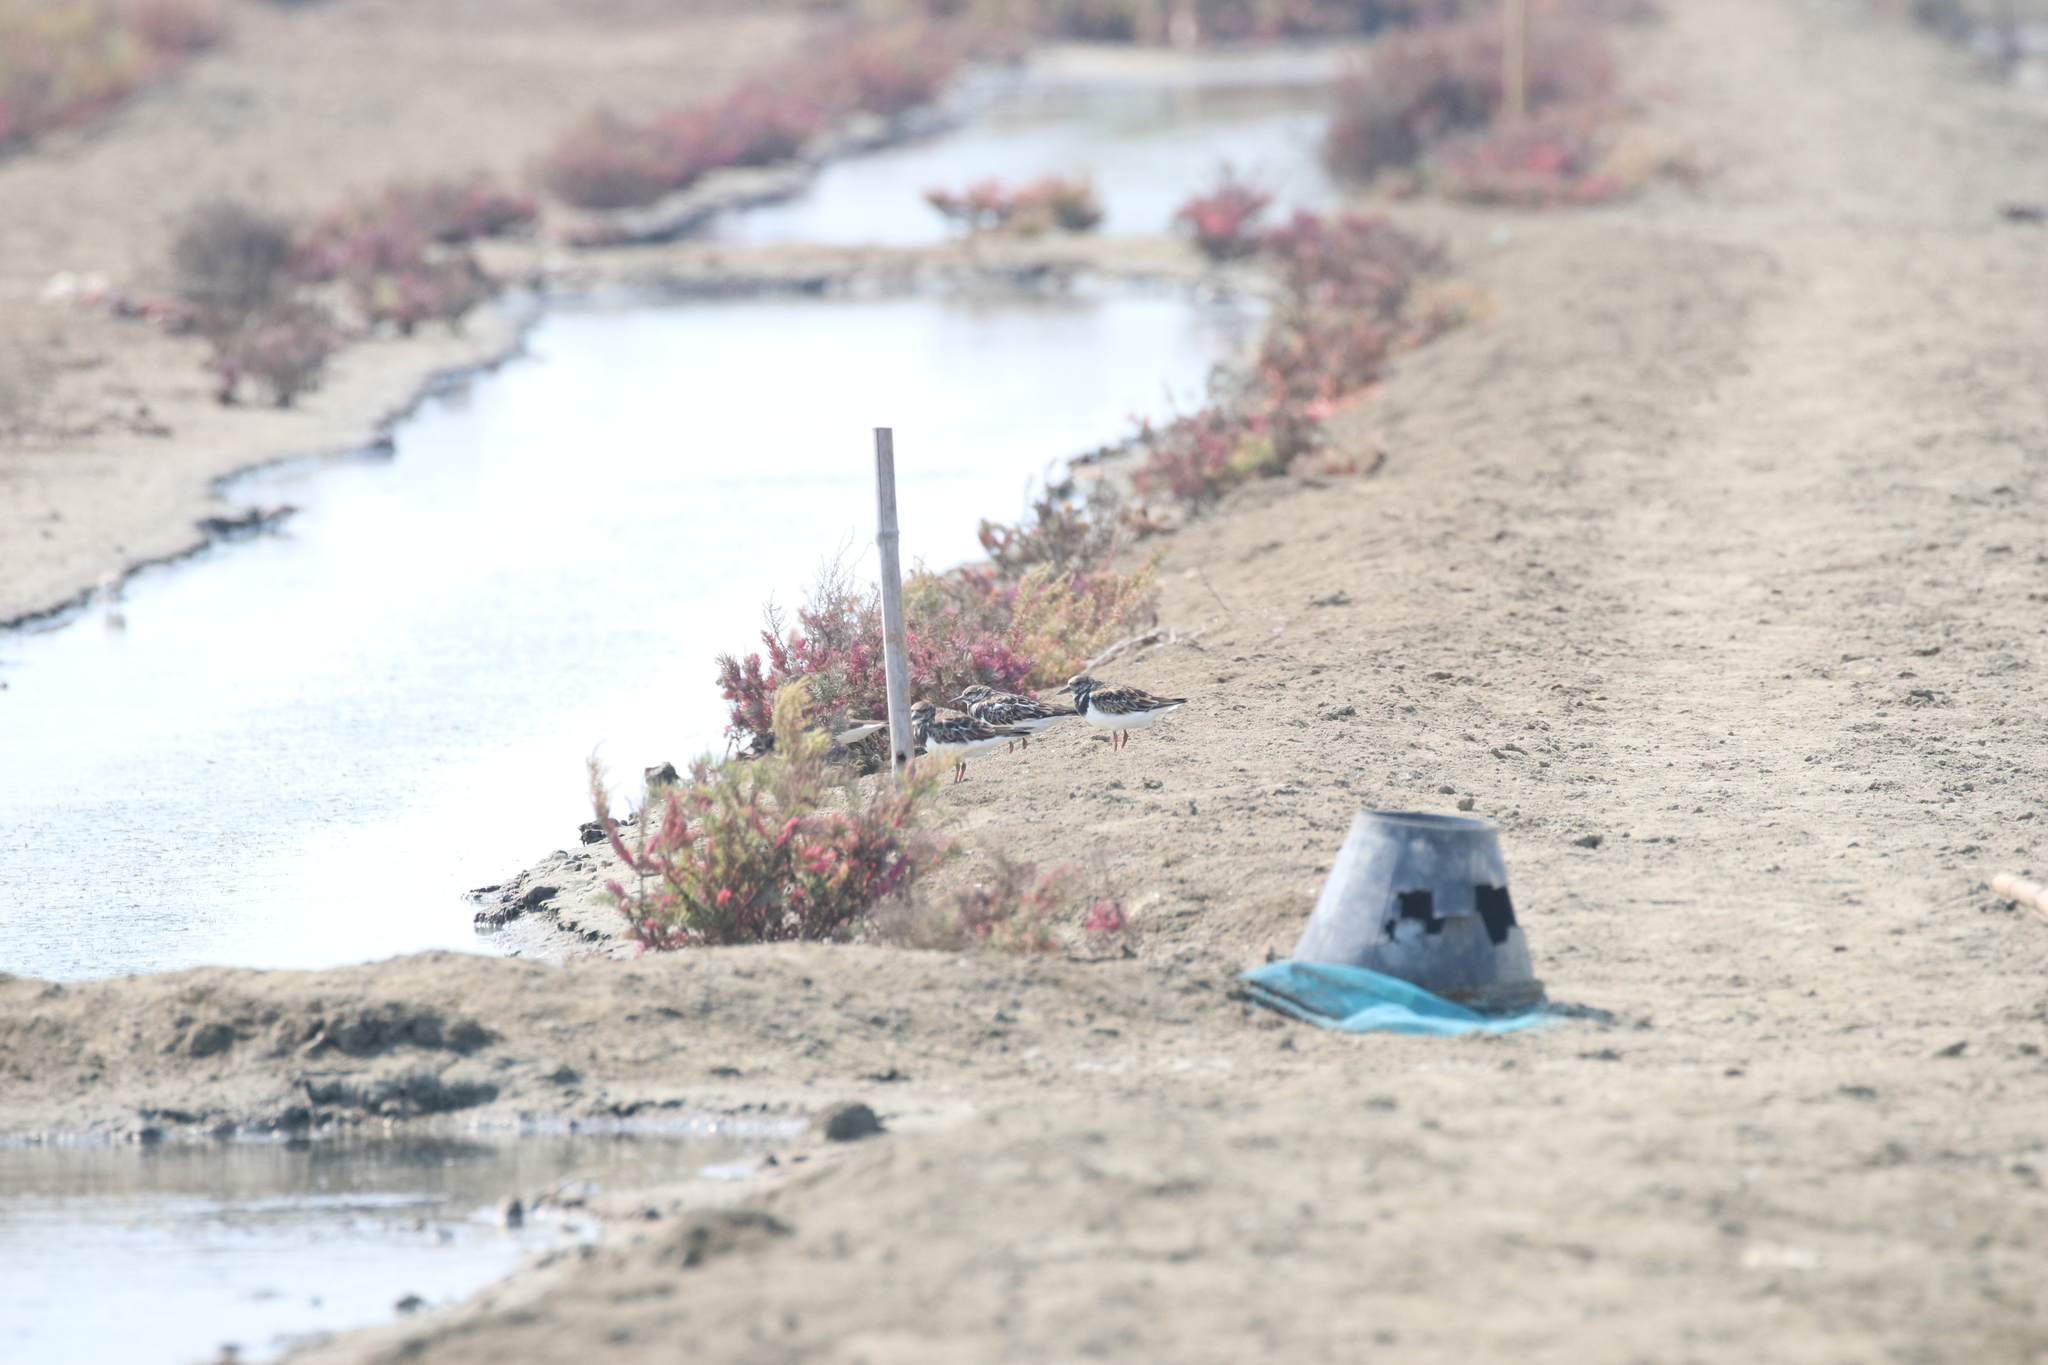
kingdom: Animalia
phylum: Chordata
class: Aves
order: Charadriiformes
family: Laridae
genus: Chroicocephalus
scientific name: Chroicocephalus brunnicephalus
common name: Brown-headed gull
